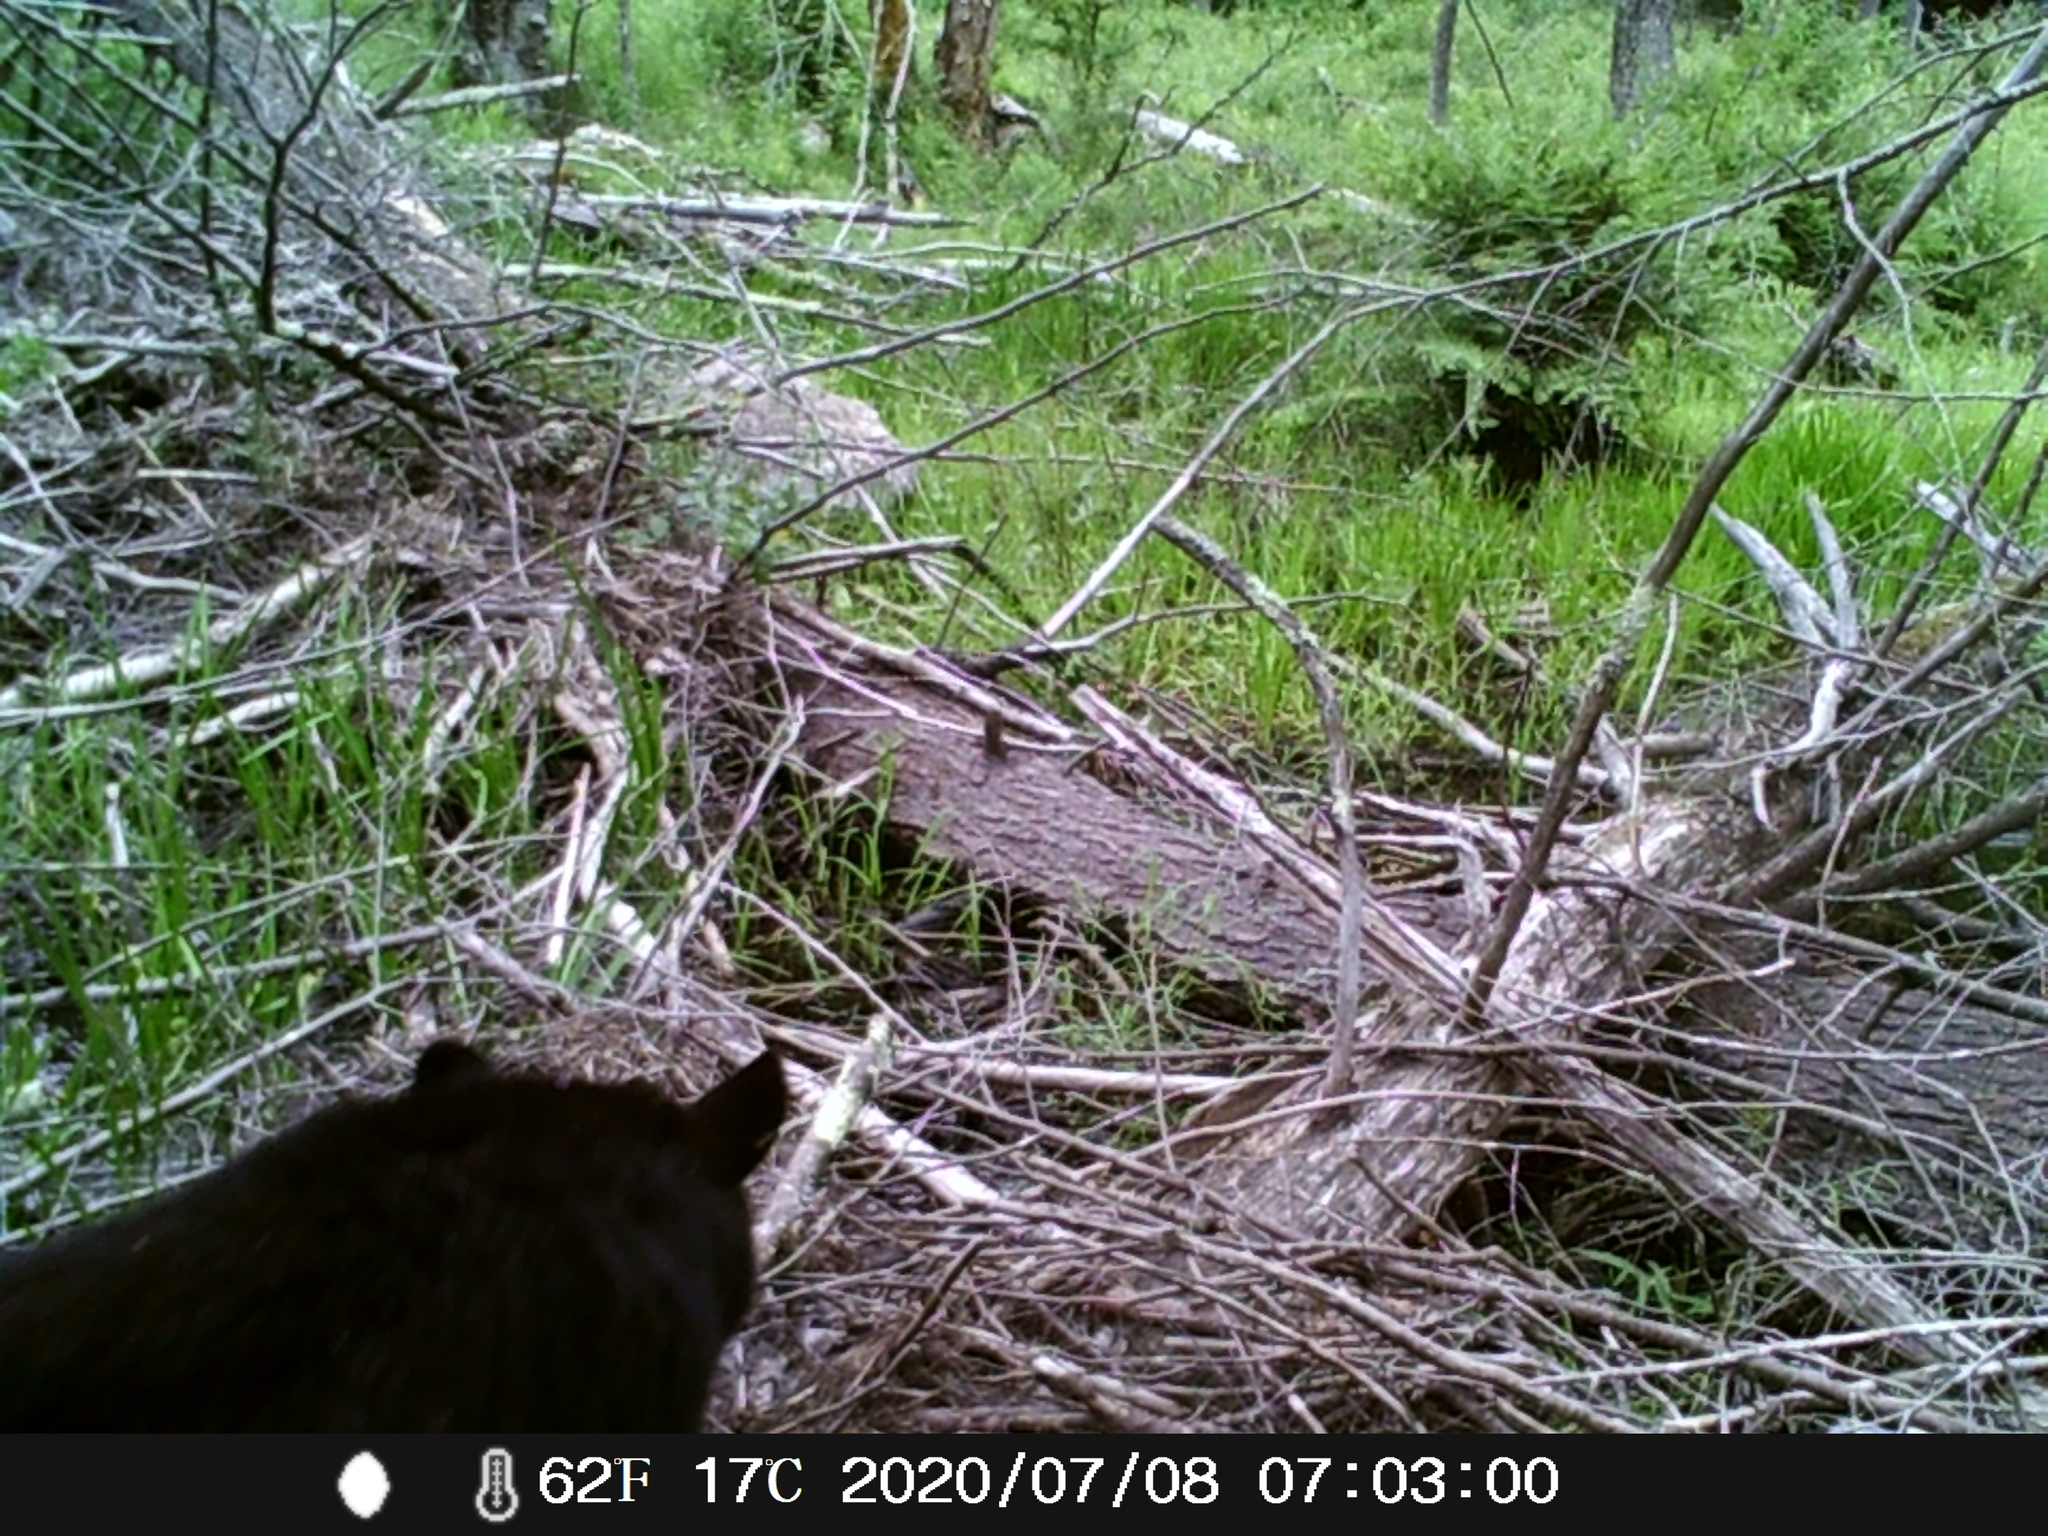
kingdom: Animalia
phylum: Chordata
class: Mammalia
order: Carnivora
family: Ursidae
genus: Ursus
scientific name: Ursus americanus
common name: American black bear
